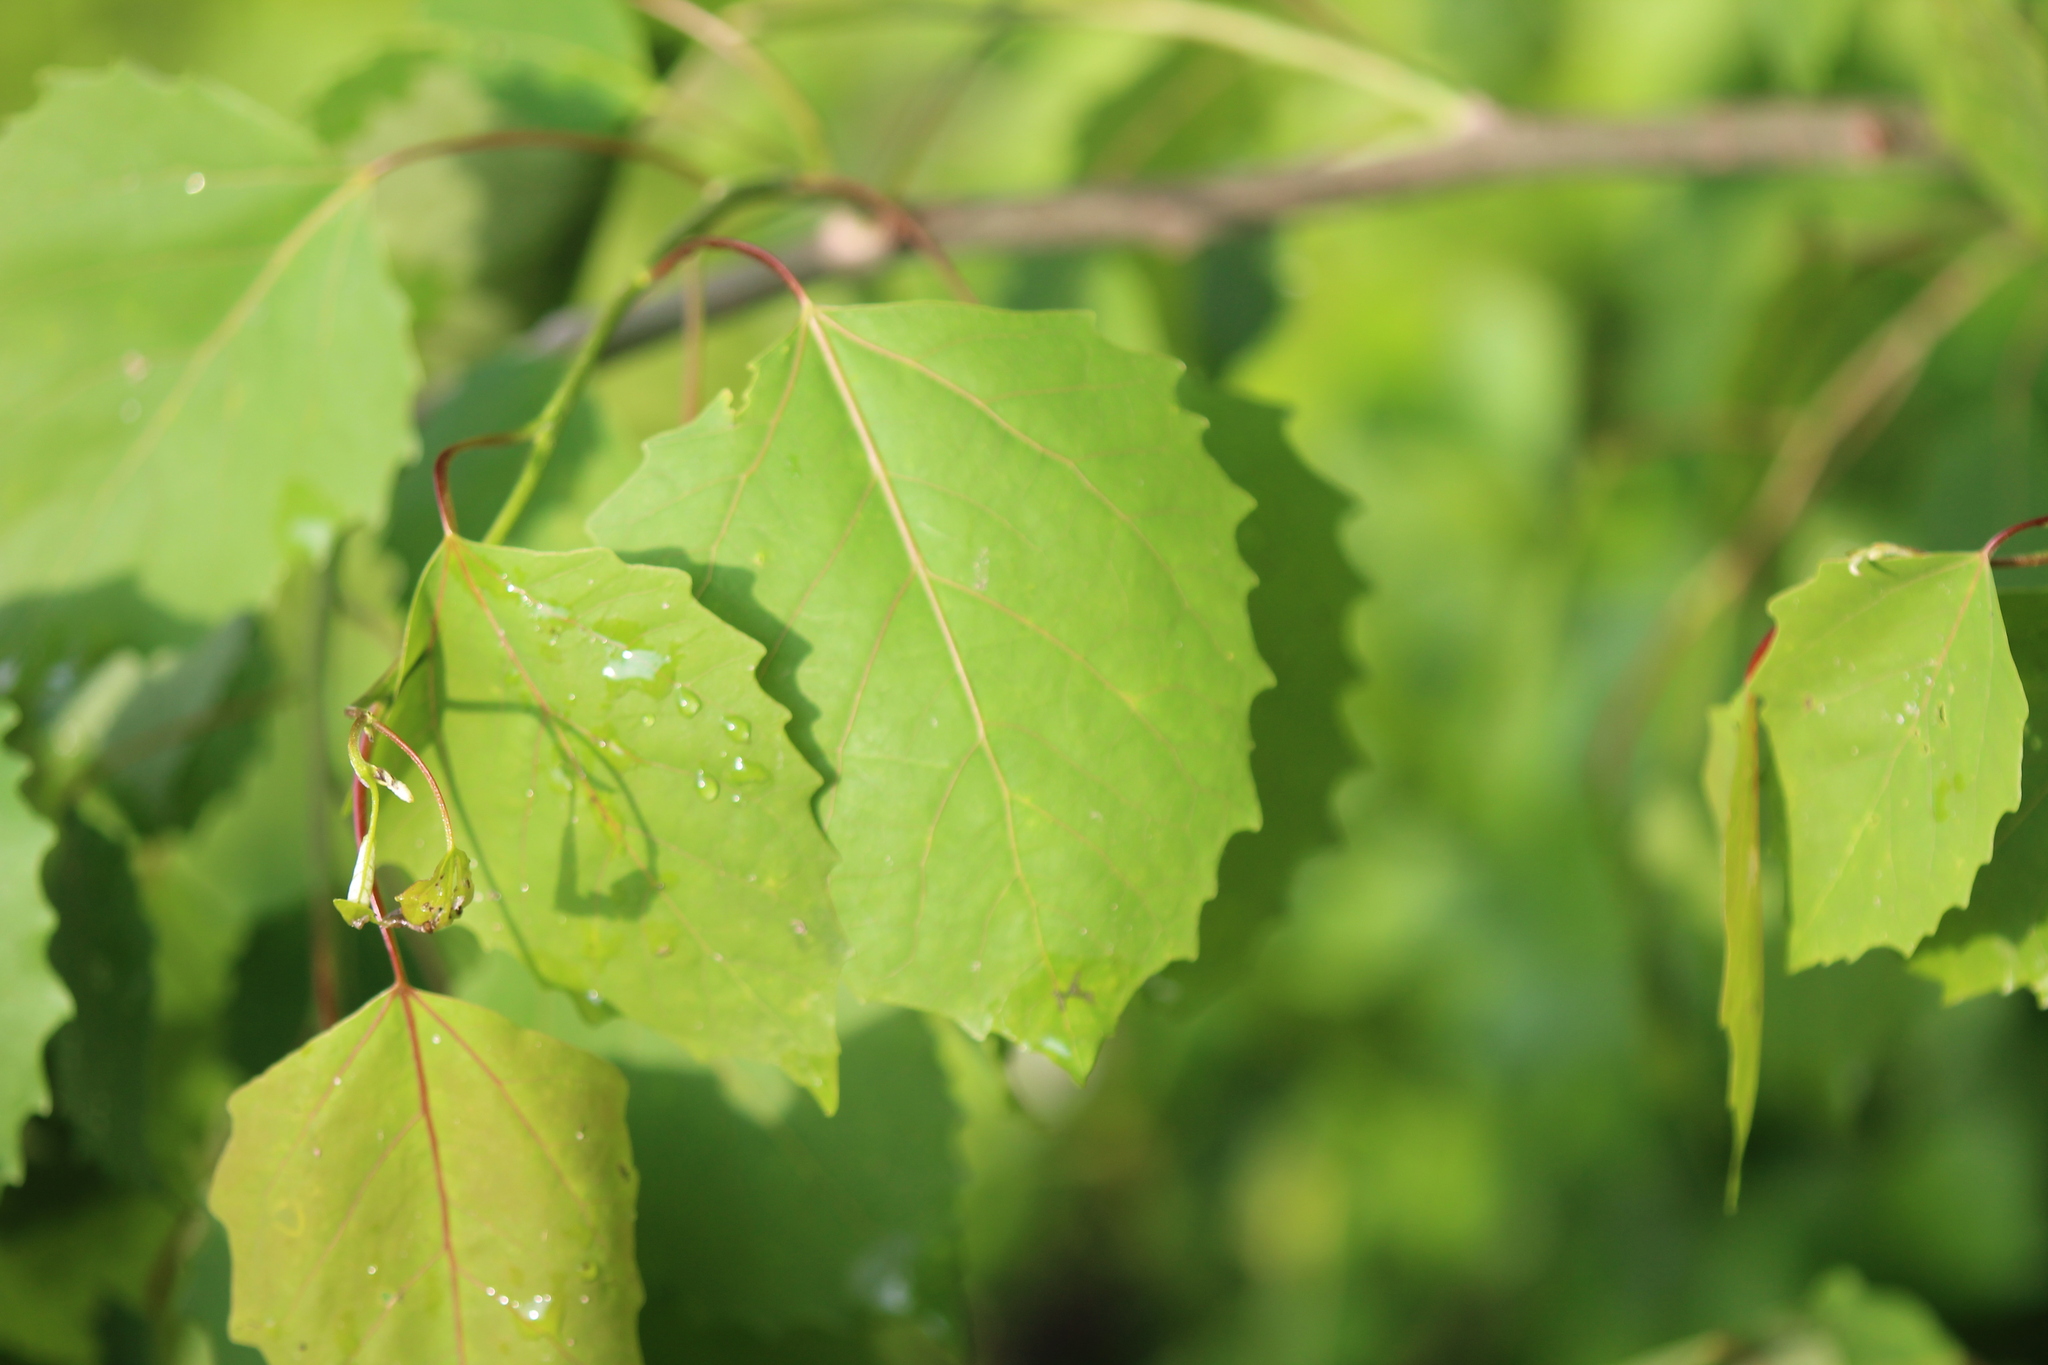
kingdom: Plantae
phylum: Tracheophyta
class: Magnoliopsida
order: Malpighiales
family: Salicaceae
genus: Populus
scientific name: Populus grandidentata
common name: Bigtooth aspen
